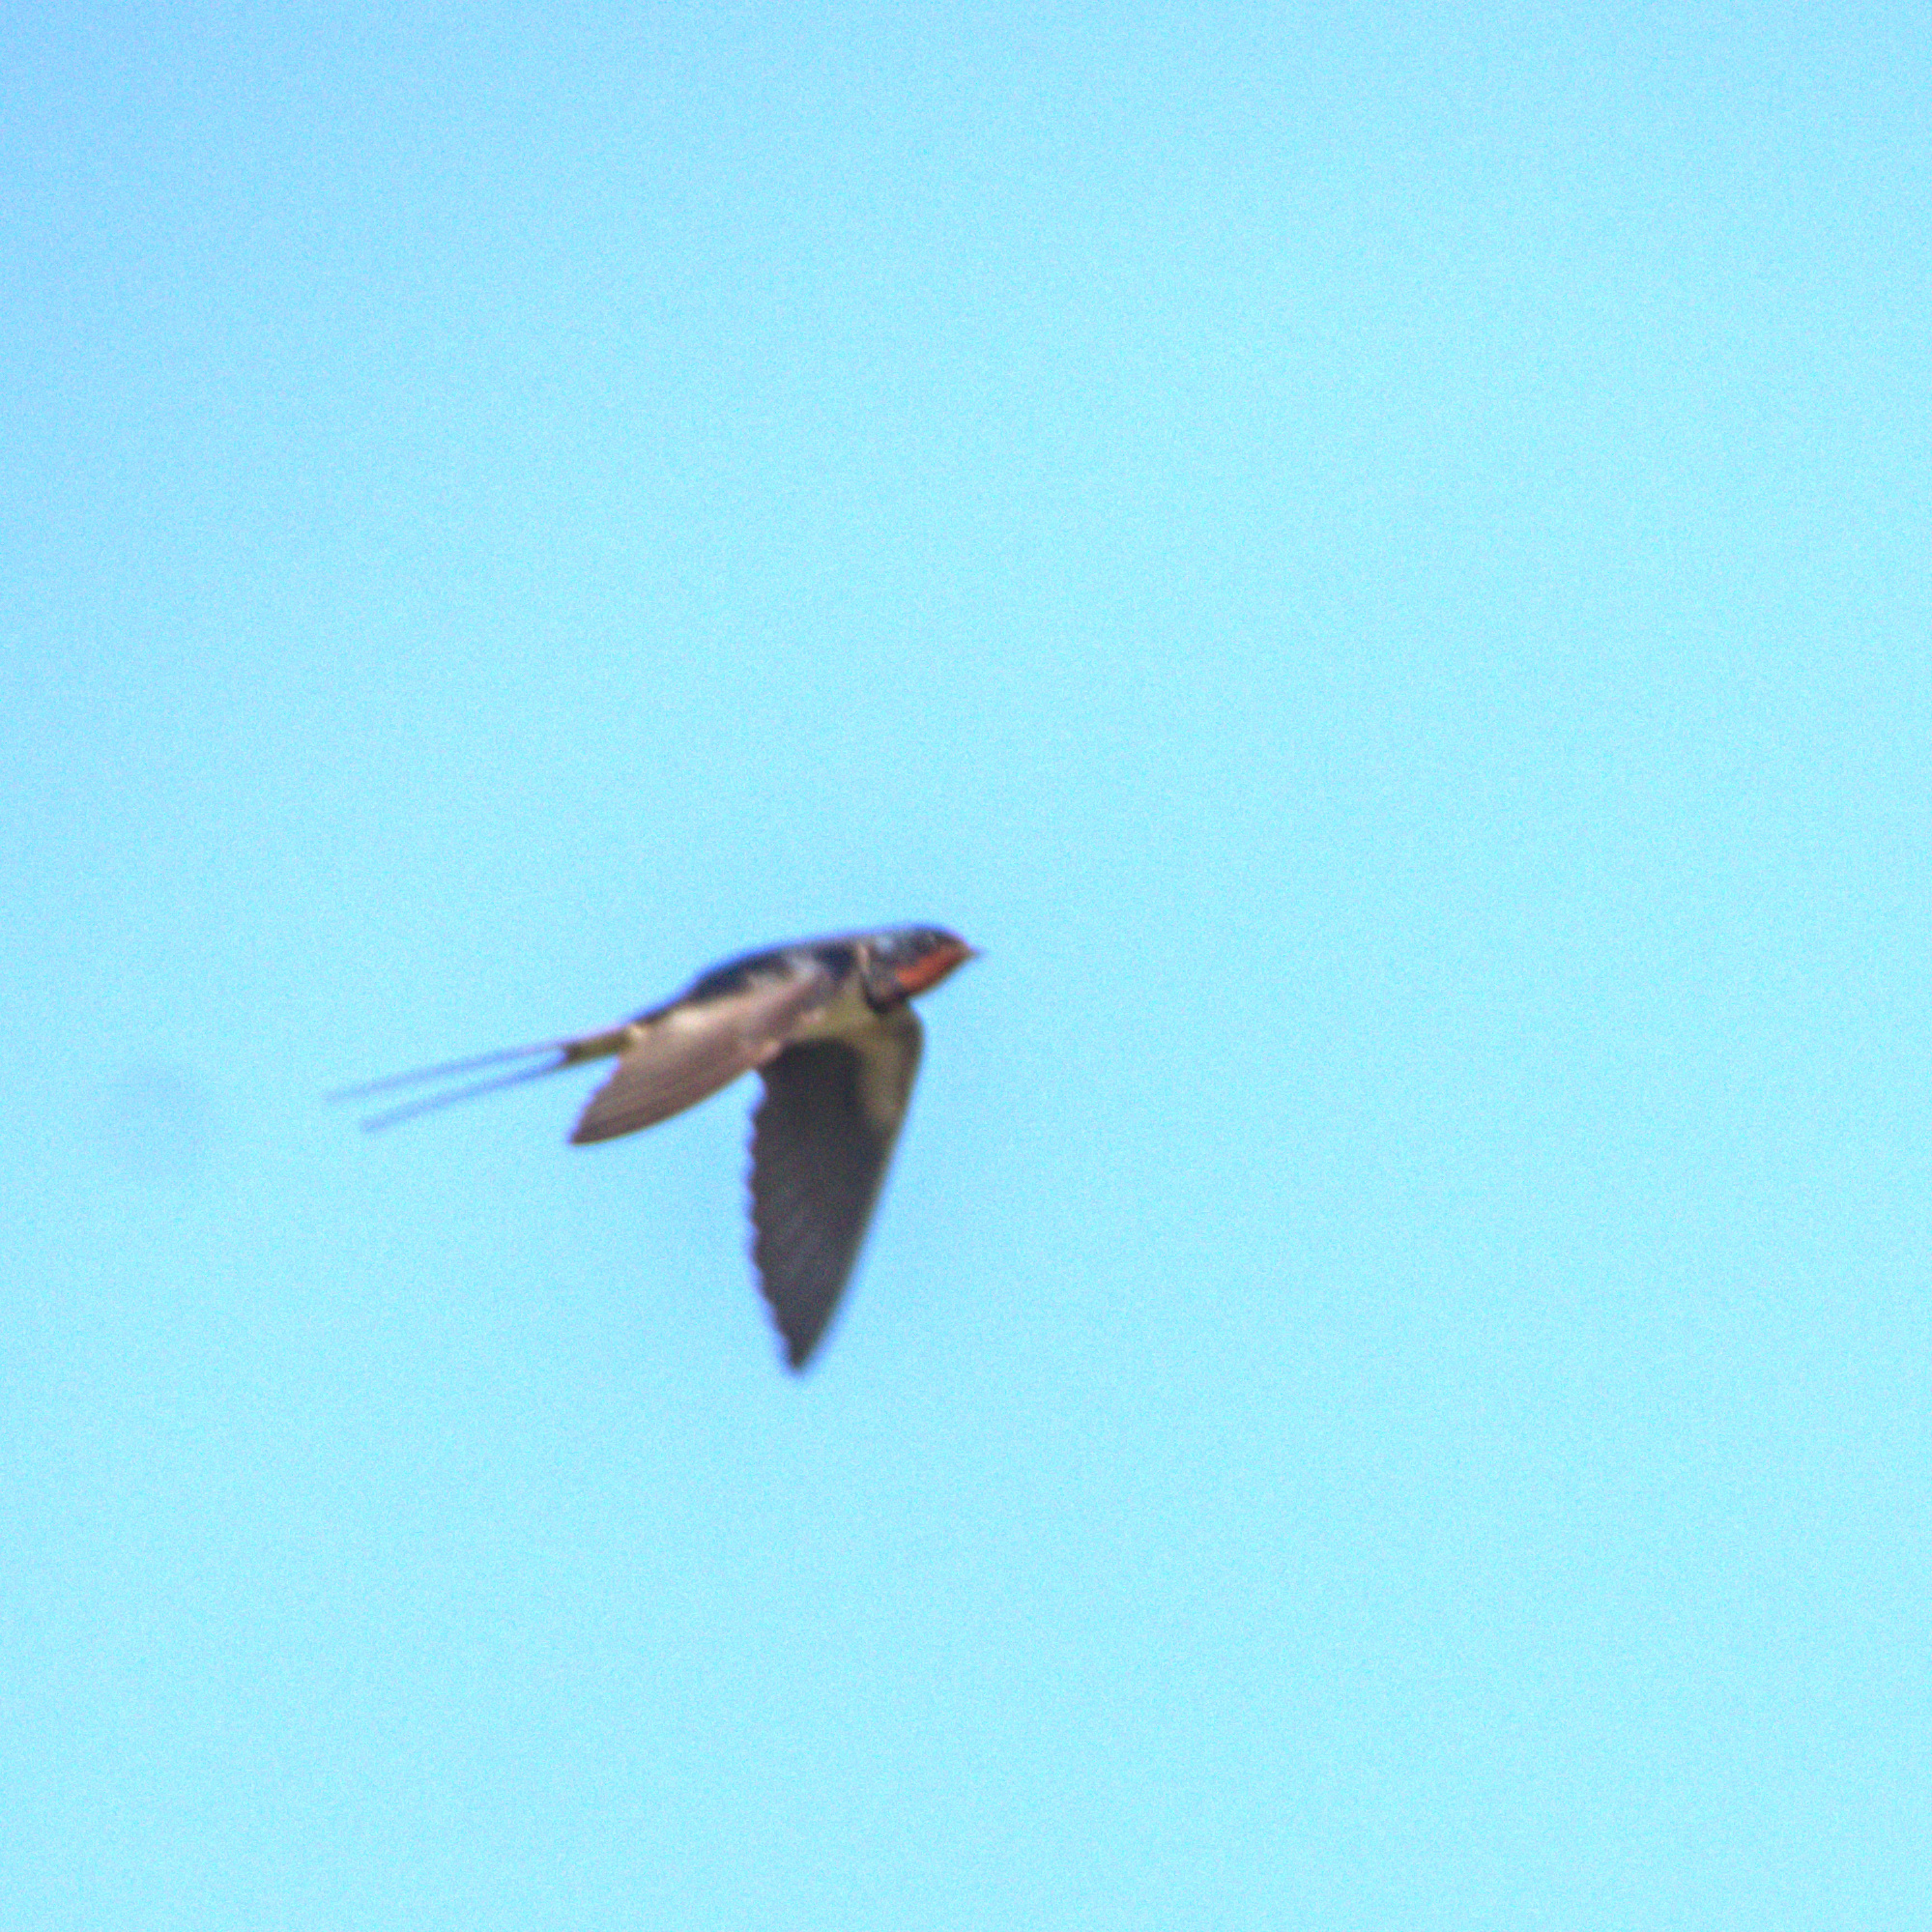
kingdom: Animalia
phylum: Chordata
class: Aves
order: Passeriformes
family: Hirundinidae
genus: Hirundo
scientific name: Hirundo rustica
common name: Barn swallow
